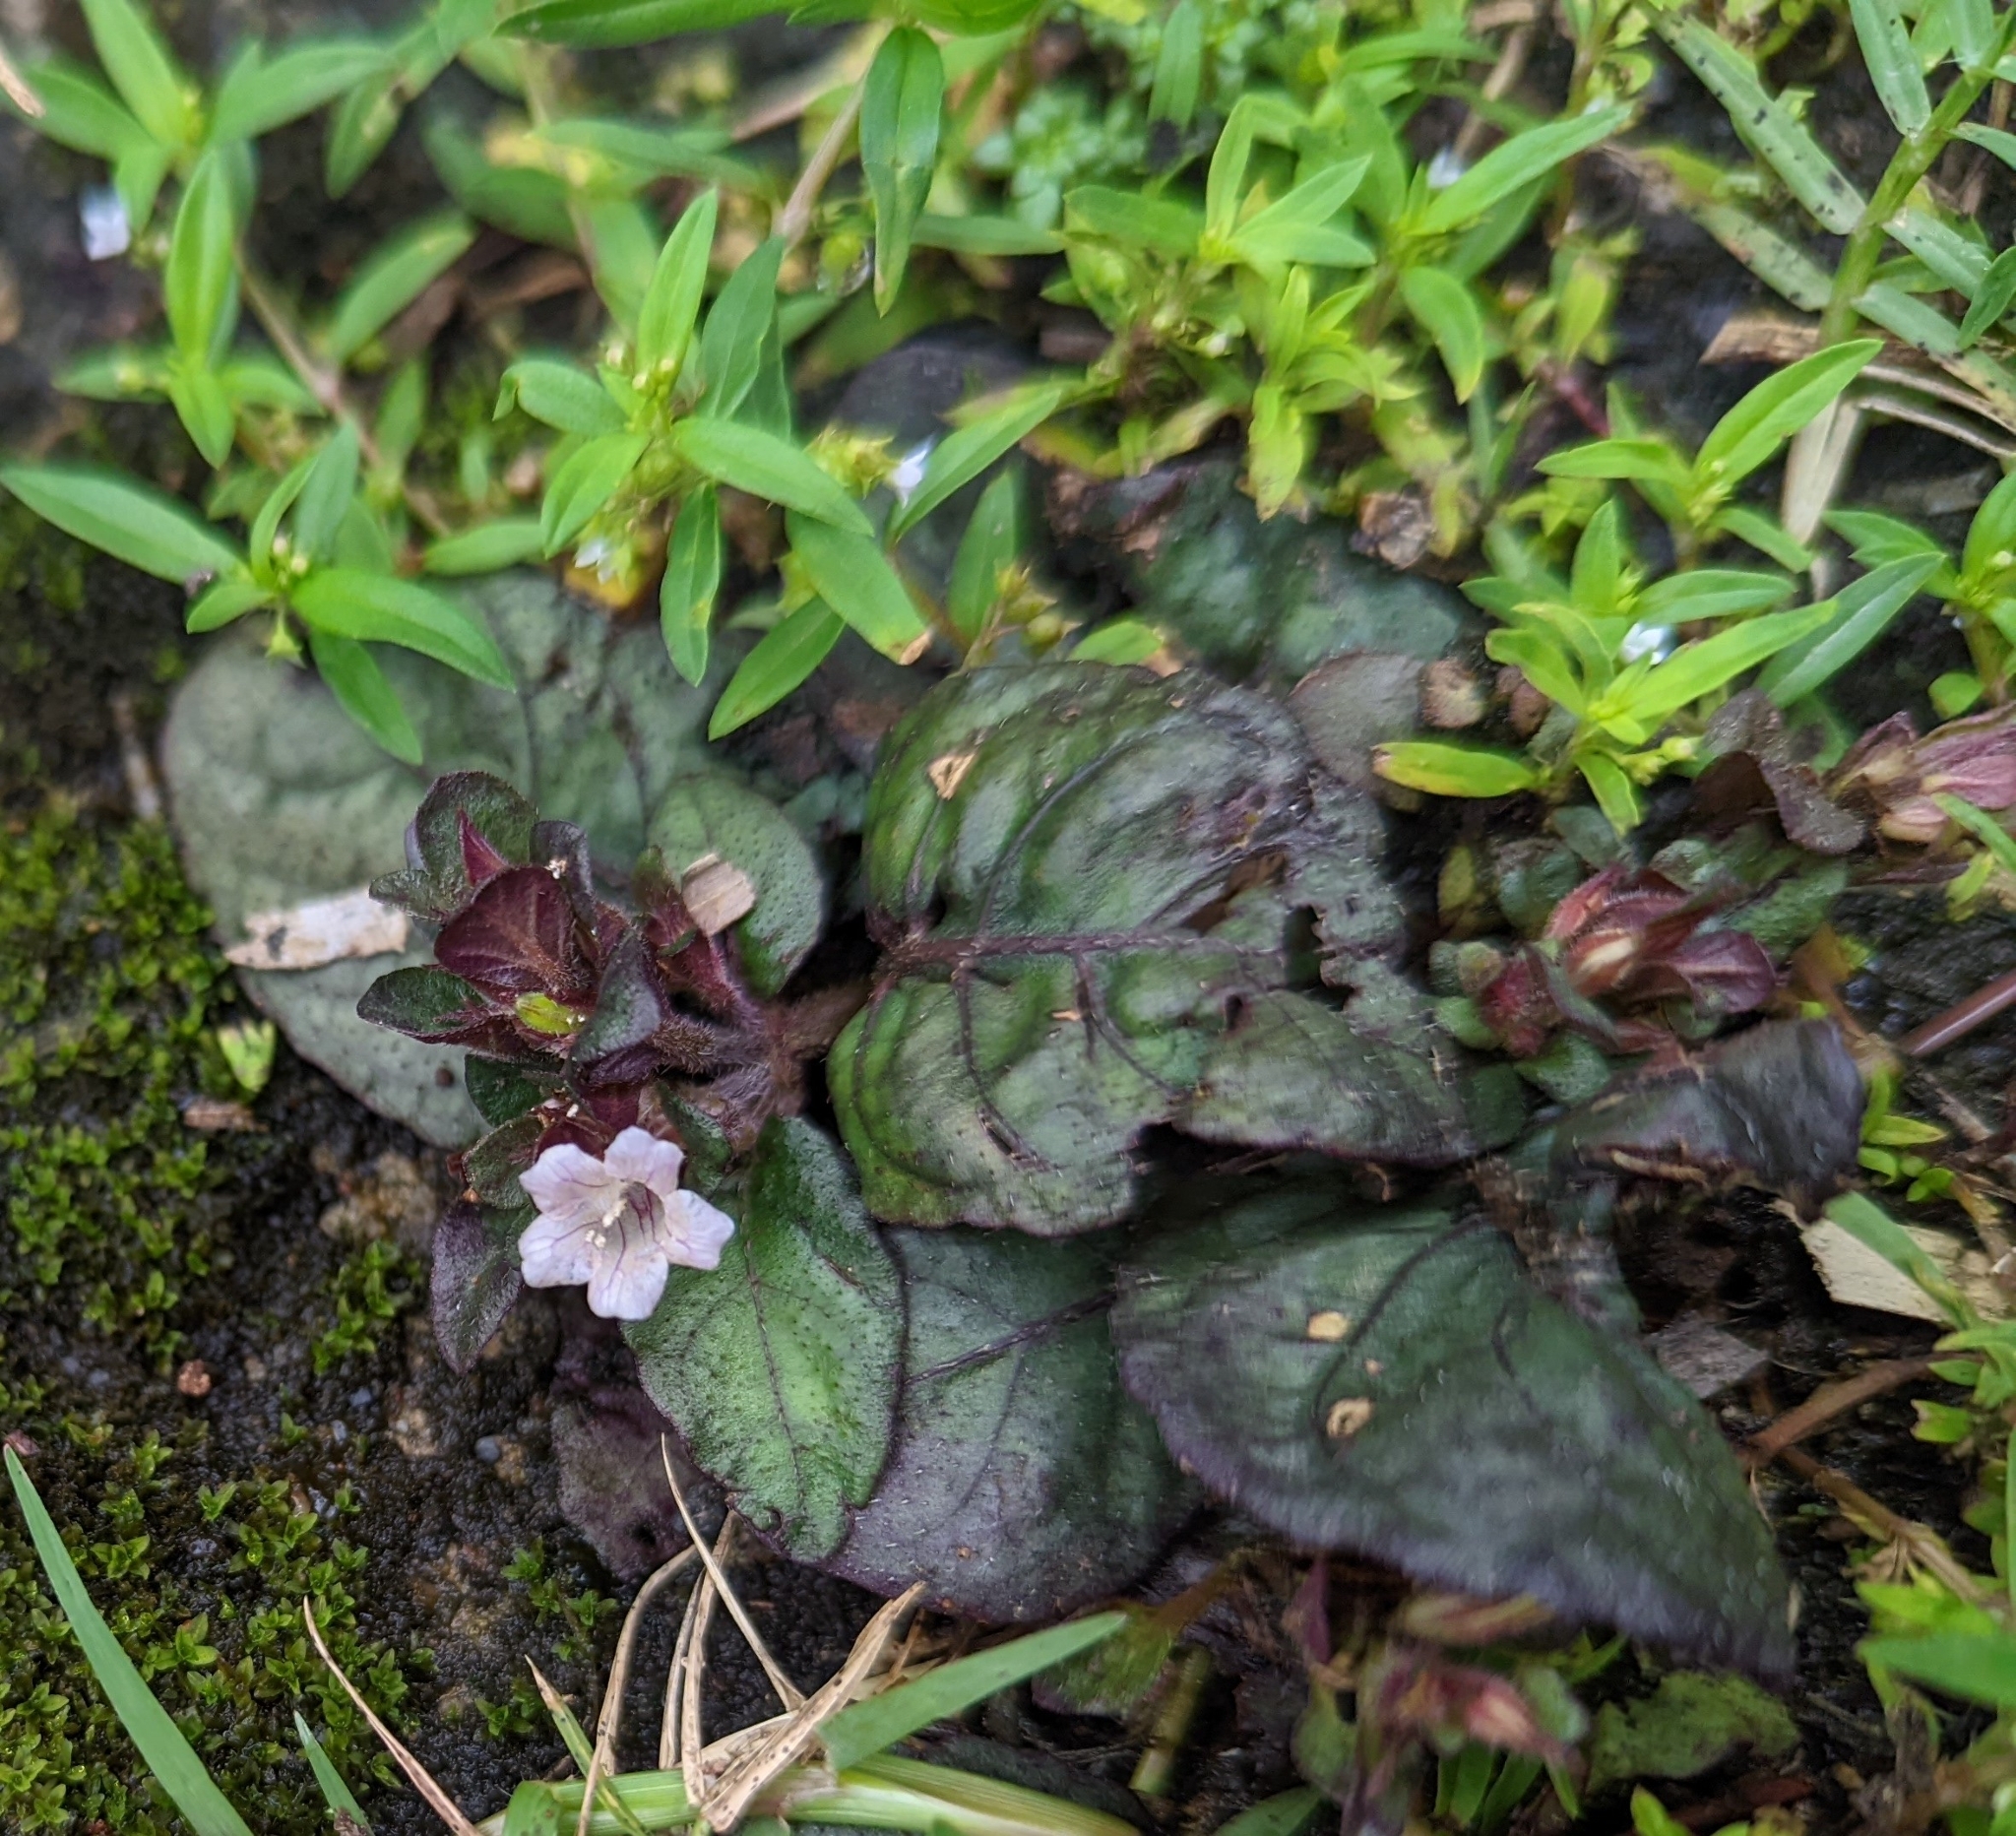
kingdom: Plantae
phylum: Tracheophyta
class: Magnoliopsida
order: Lamiales
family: Acanthaceae
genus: Strobilanthes
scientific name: Strobilanthes reptans
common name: Acanthaceae
